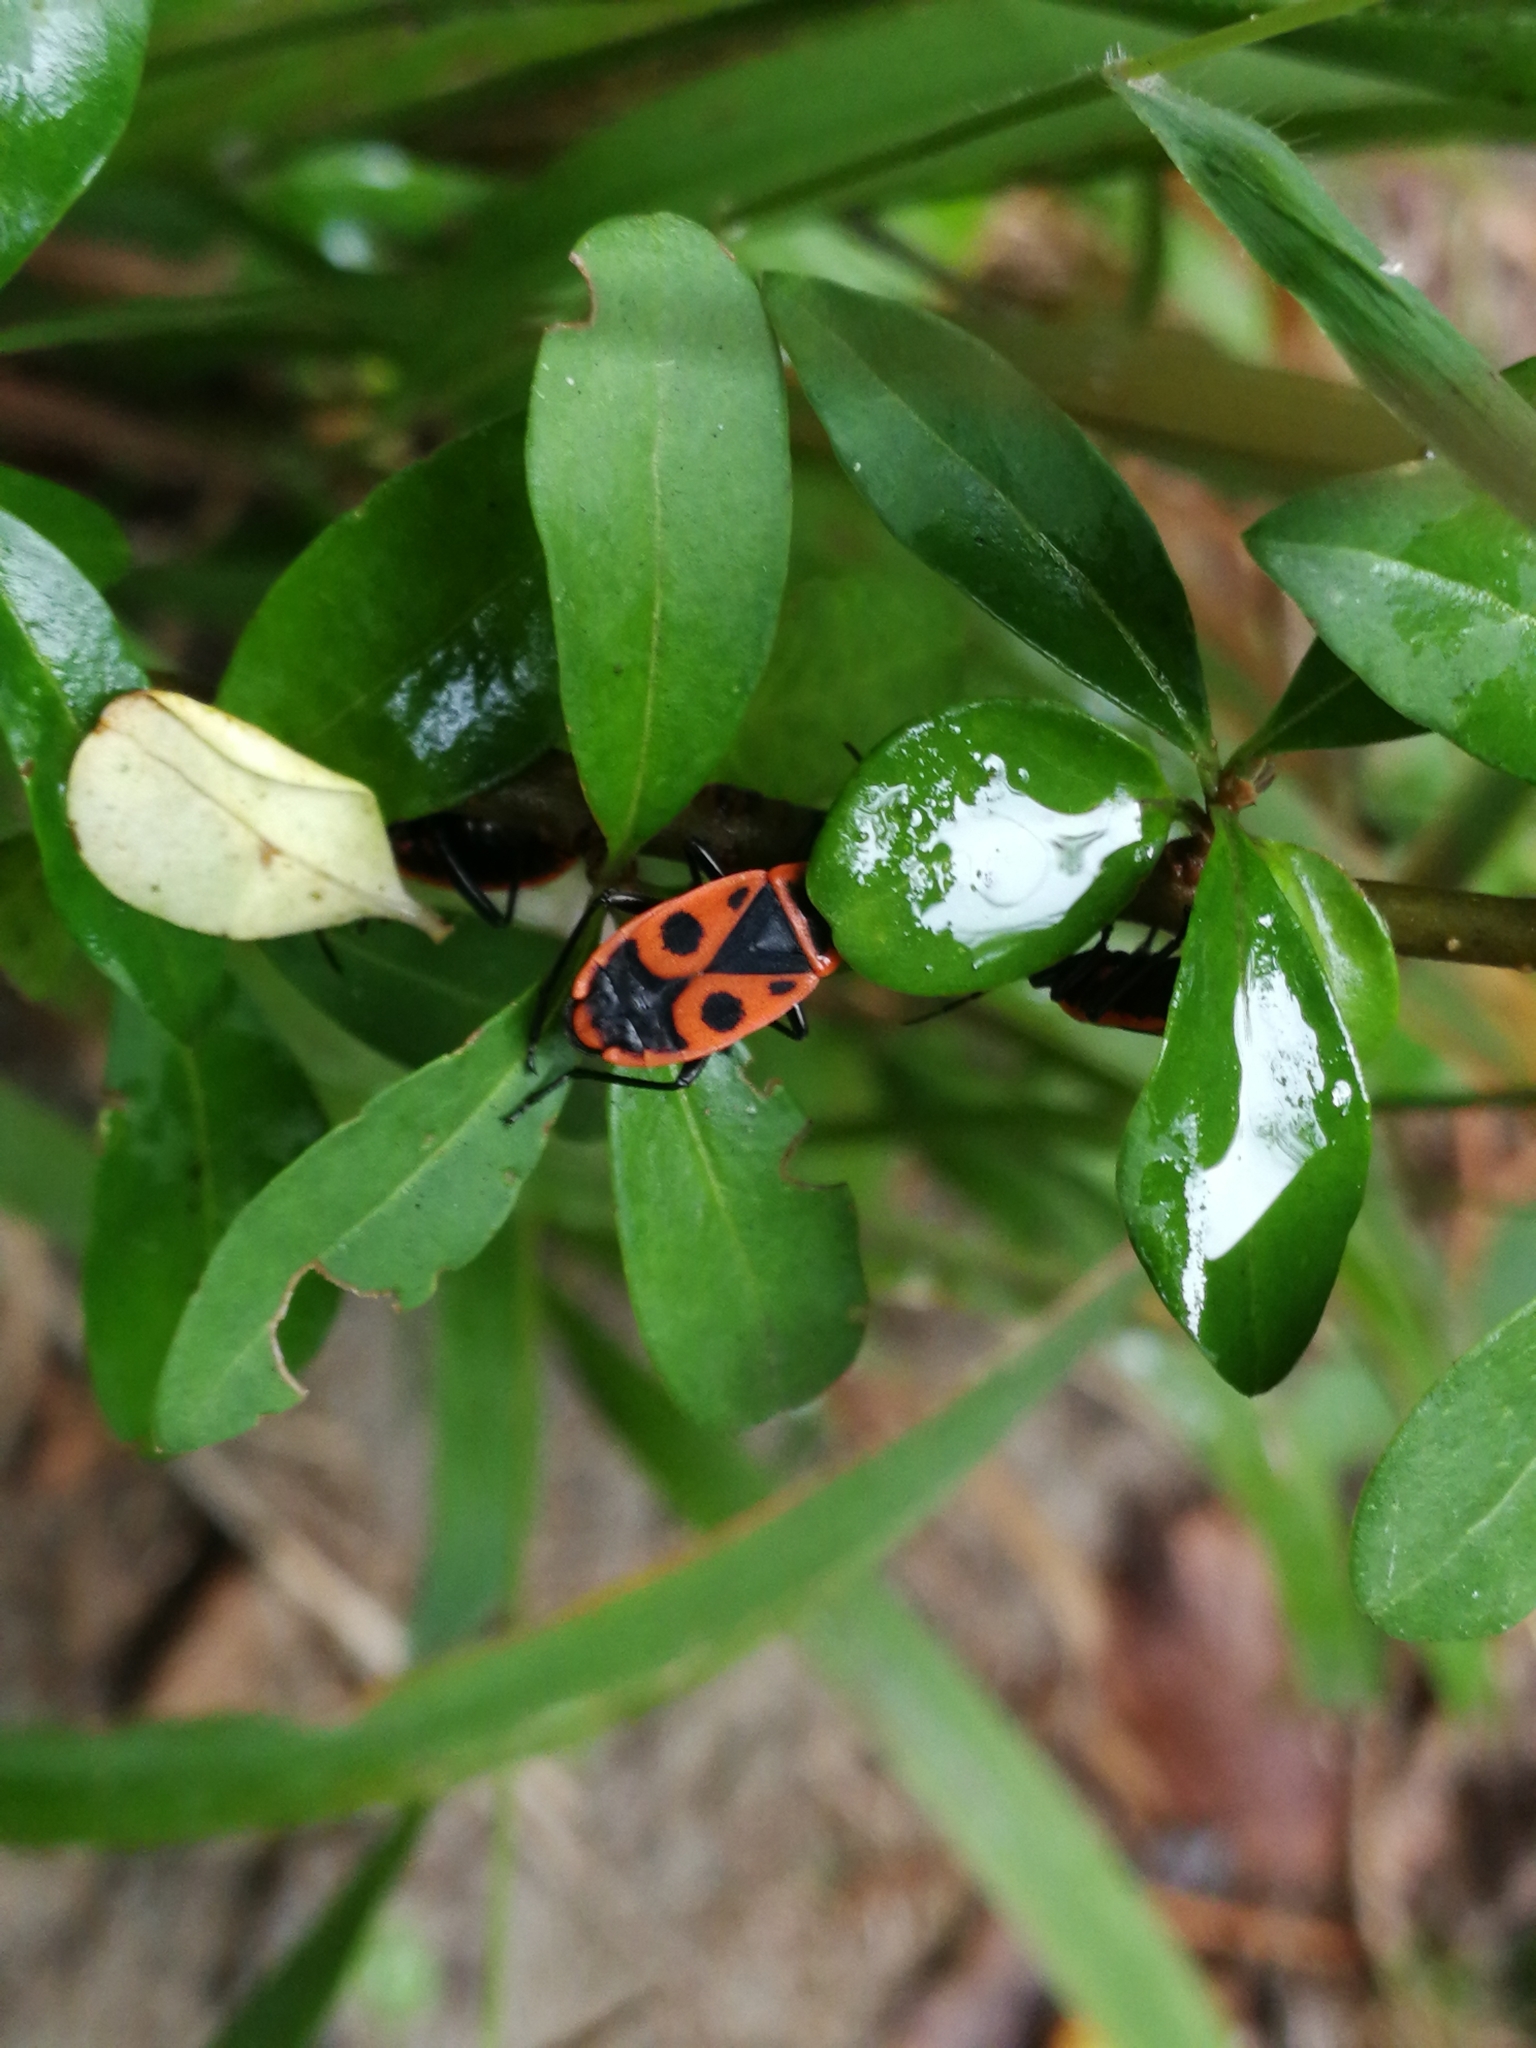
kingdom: Animalia
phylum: Arthropoda
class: Insecta
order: Hemiptera
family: Pyrrhocoridae
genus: Pyrrhocoris
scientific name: Pyrrhocoris apterus
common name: Firebug
